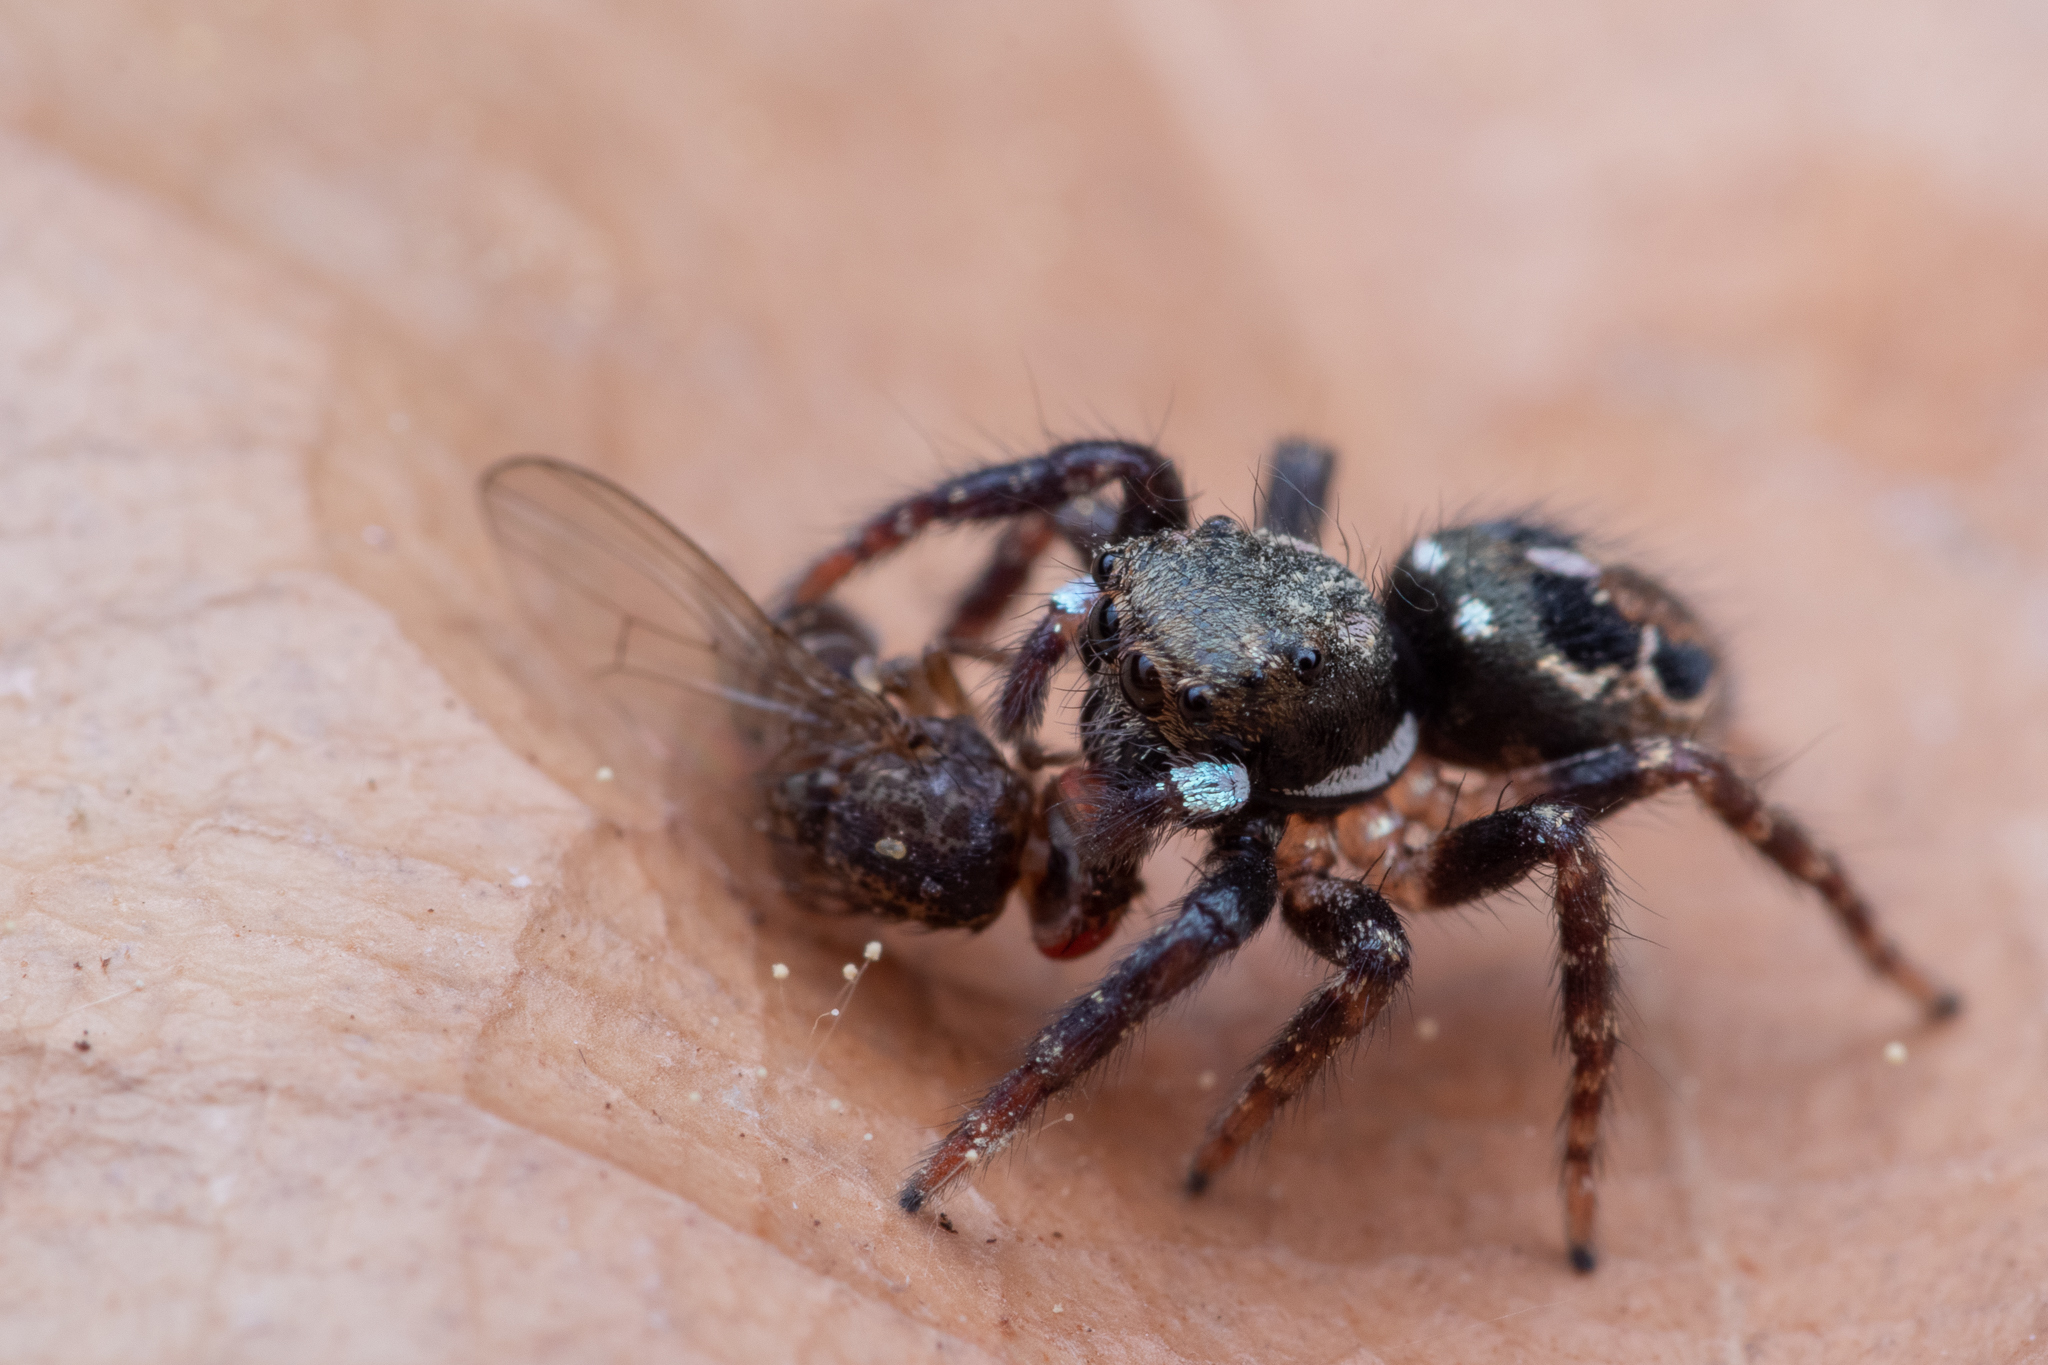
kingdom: Animalia
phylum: Arthropoda
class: Arachnida
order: Araneae
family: Salticidae
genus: Anasaitis
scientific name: Anasaitis canosa
